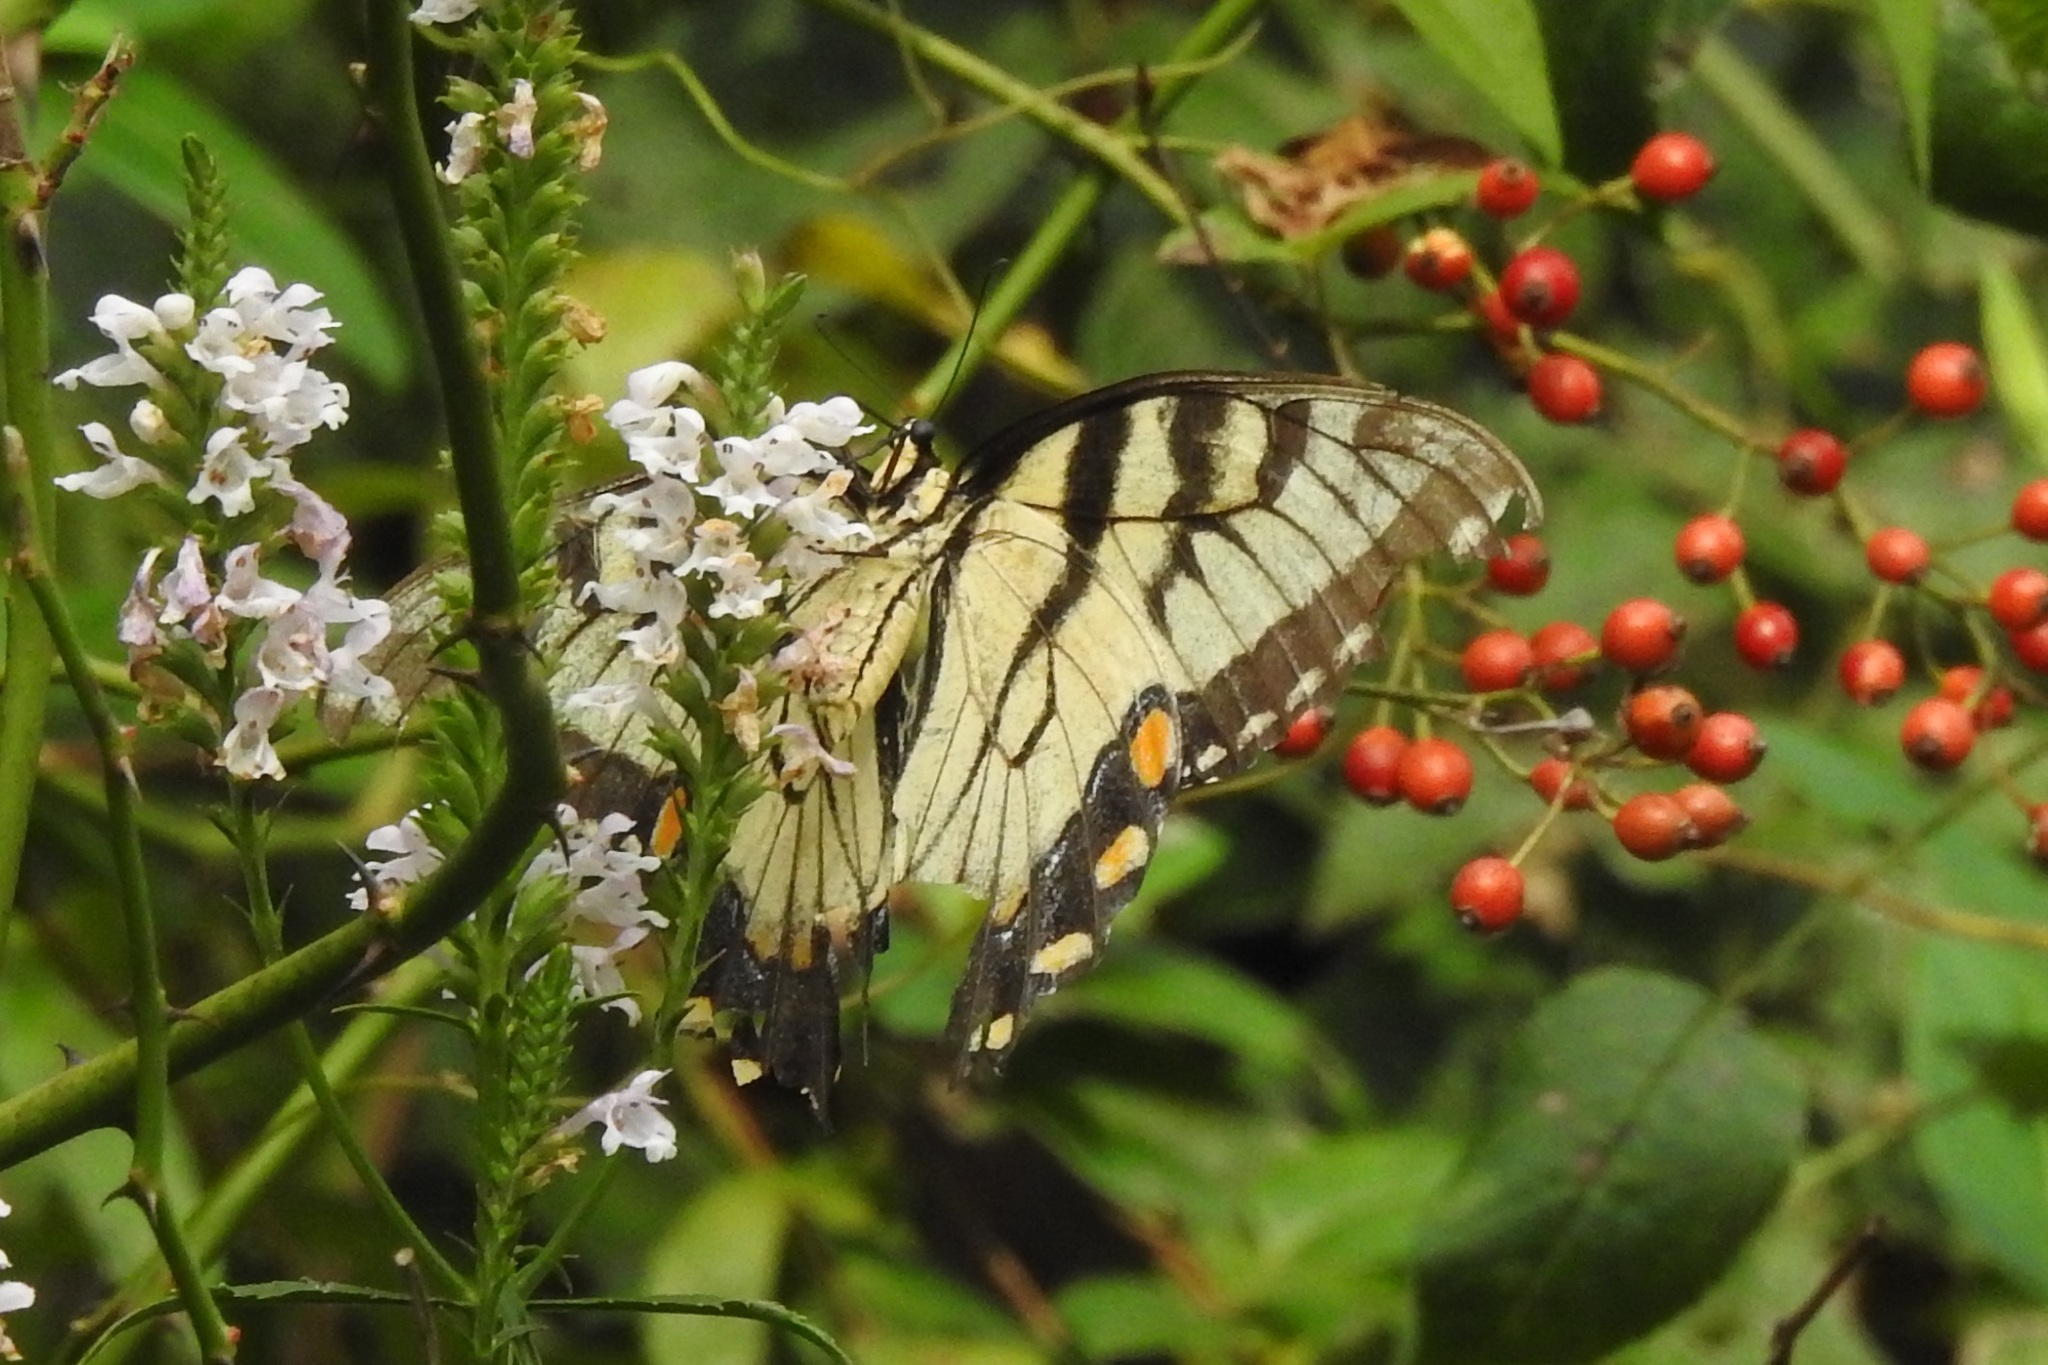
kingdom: Animalia
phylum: Arthropoda
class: Insecta
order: Lepidoptera
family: Papilionidae
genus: Papilio
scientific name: Papilio glaucus
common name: Tiger swallowtail
